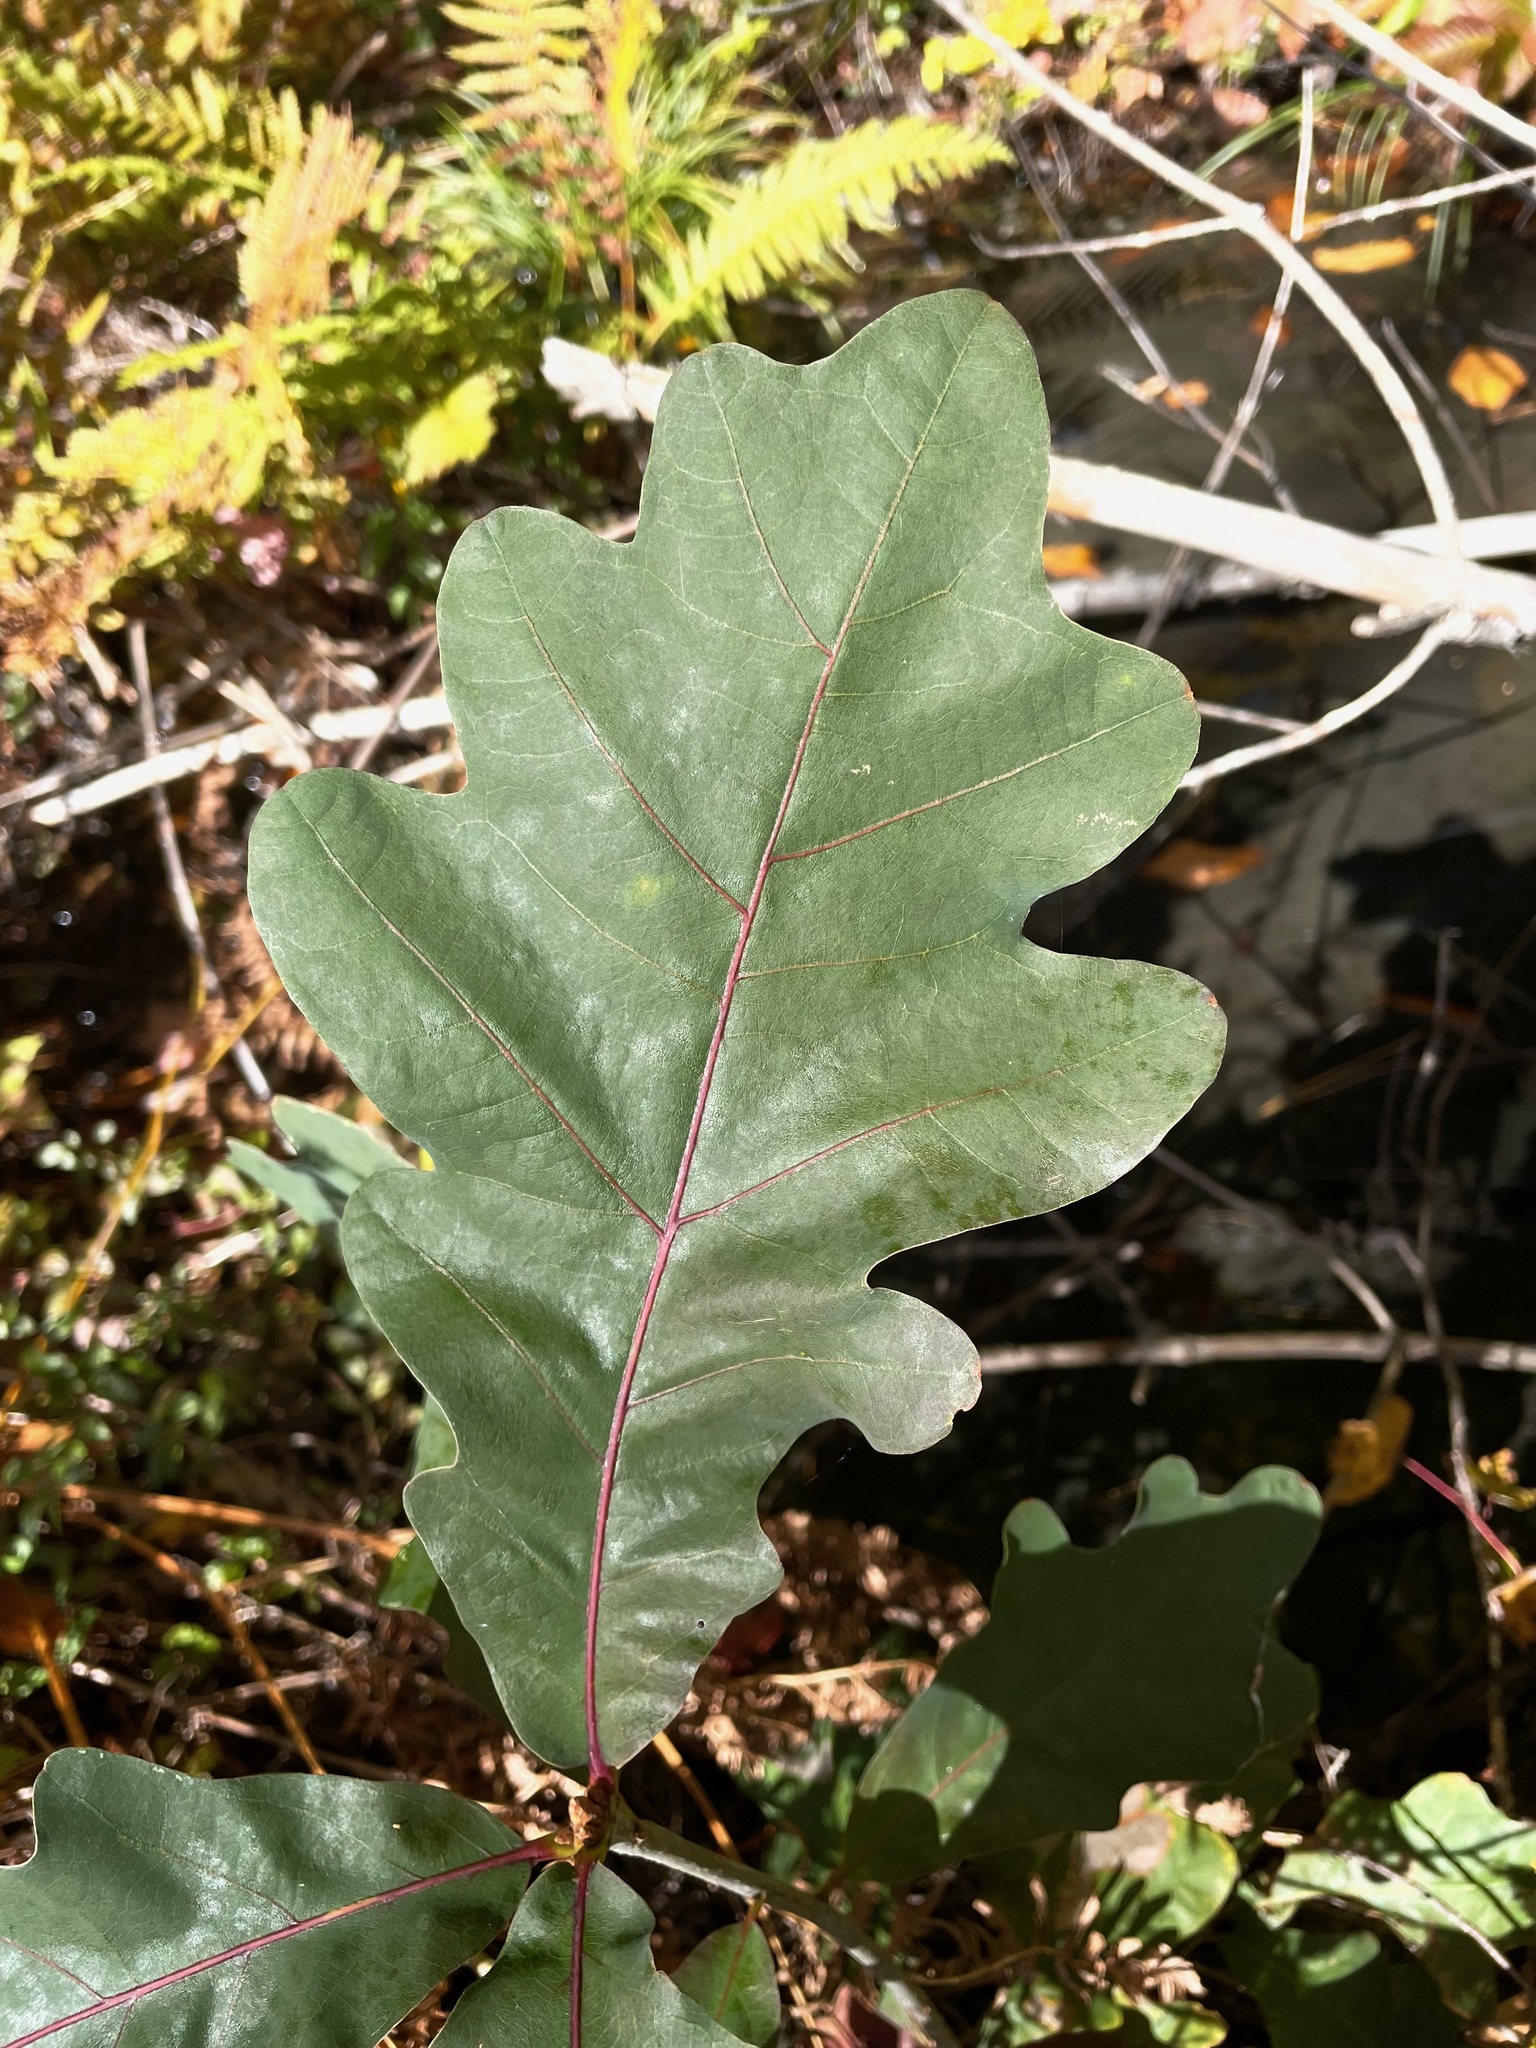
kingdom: Plantae
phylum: Tracheophyta
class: Magnoliopsida
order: Fagales
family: Fagaceae
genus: Quercus
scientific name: Quercus alba
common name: White oak
